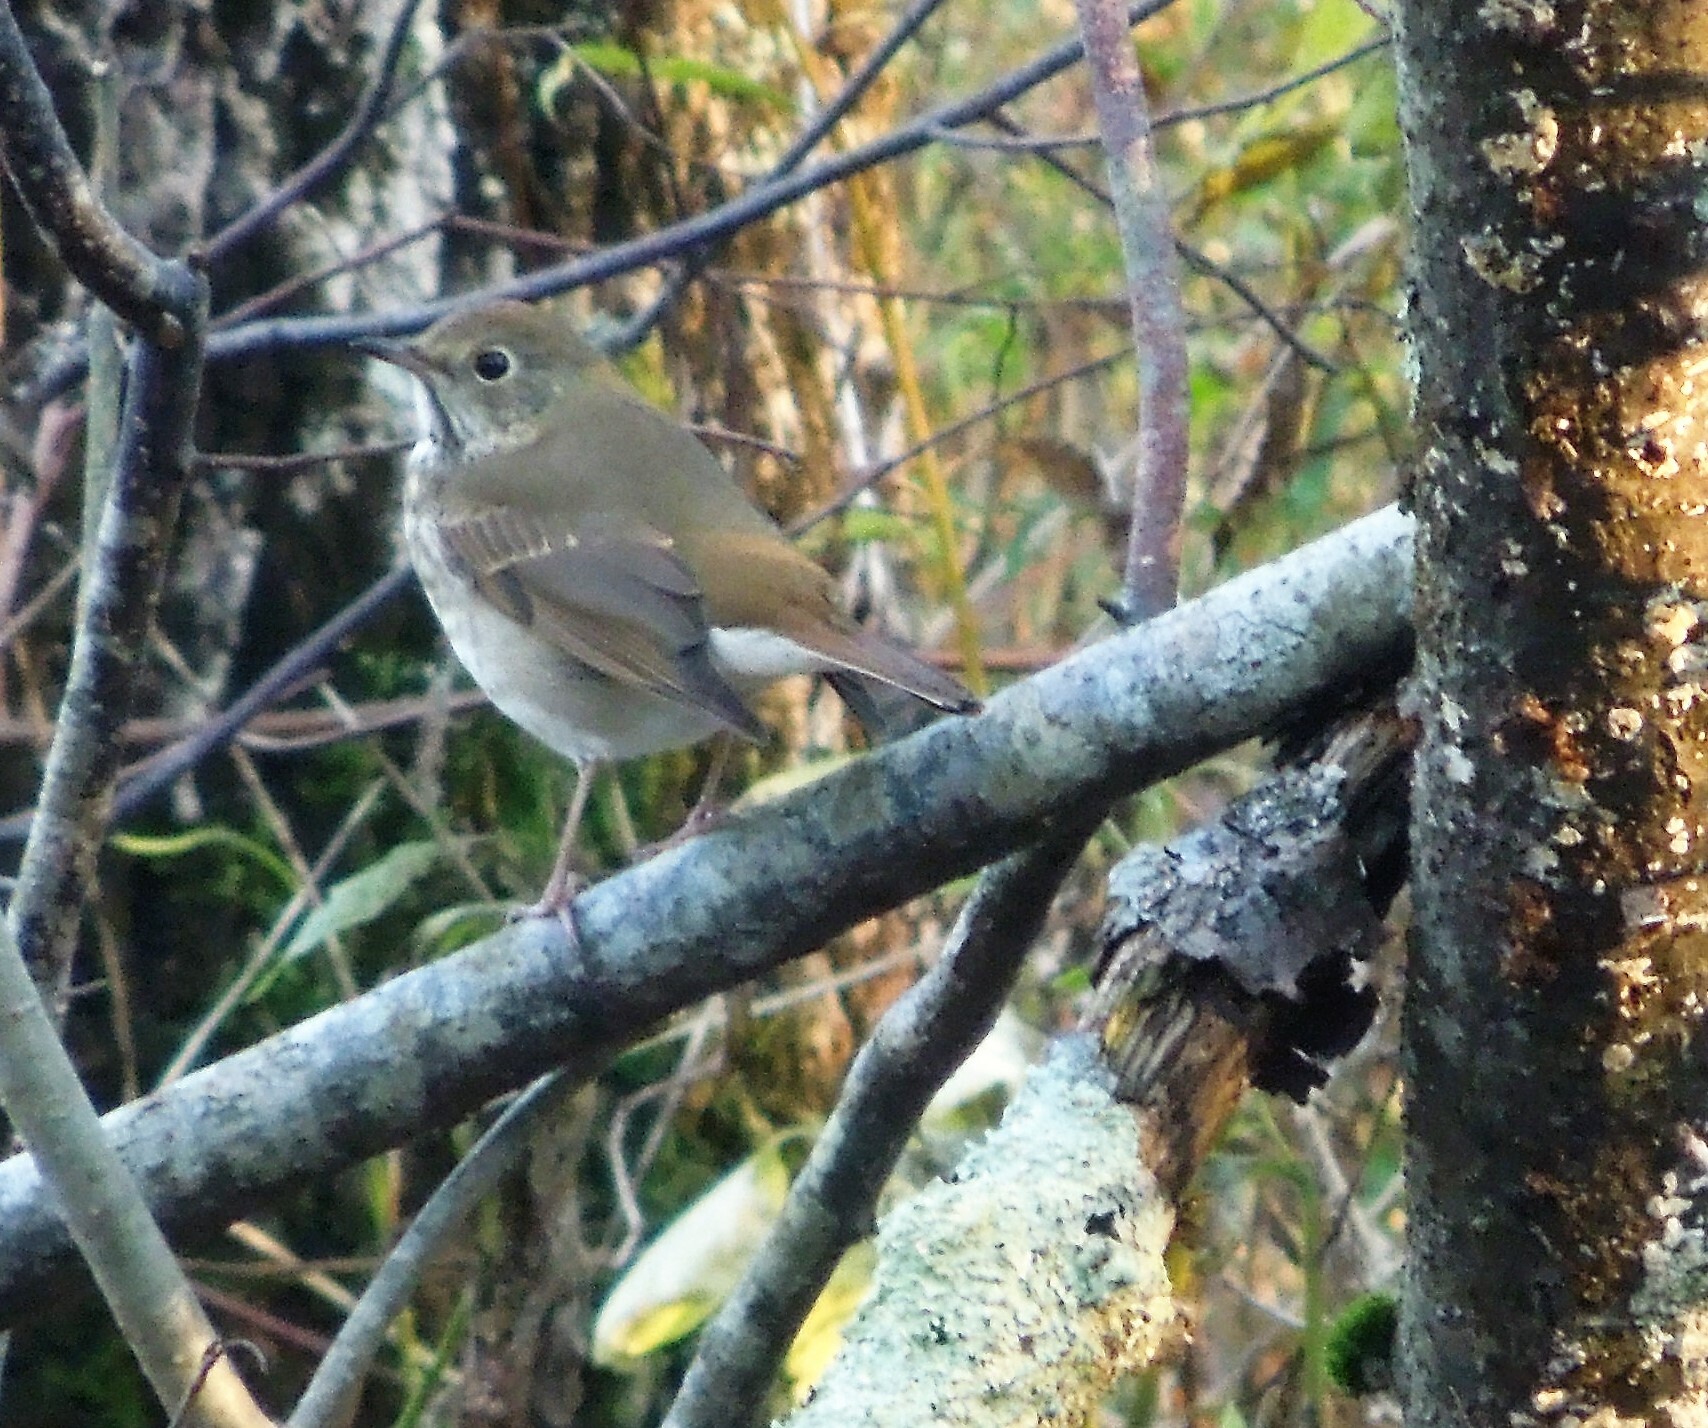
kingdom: Animalia
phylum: Chordata
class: Aves
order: Passeriformes
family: Turdidae
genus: Catharus
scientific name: Catharus guttatus
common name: Hermit thrush
